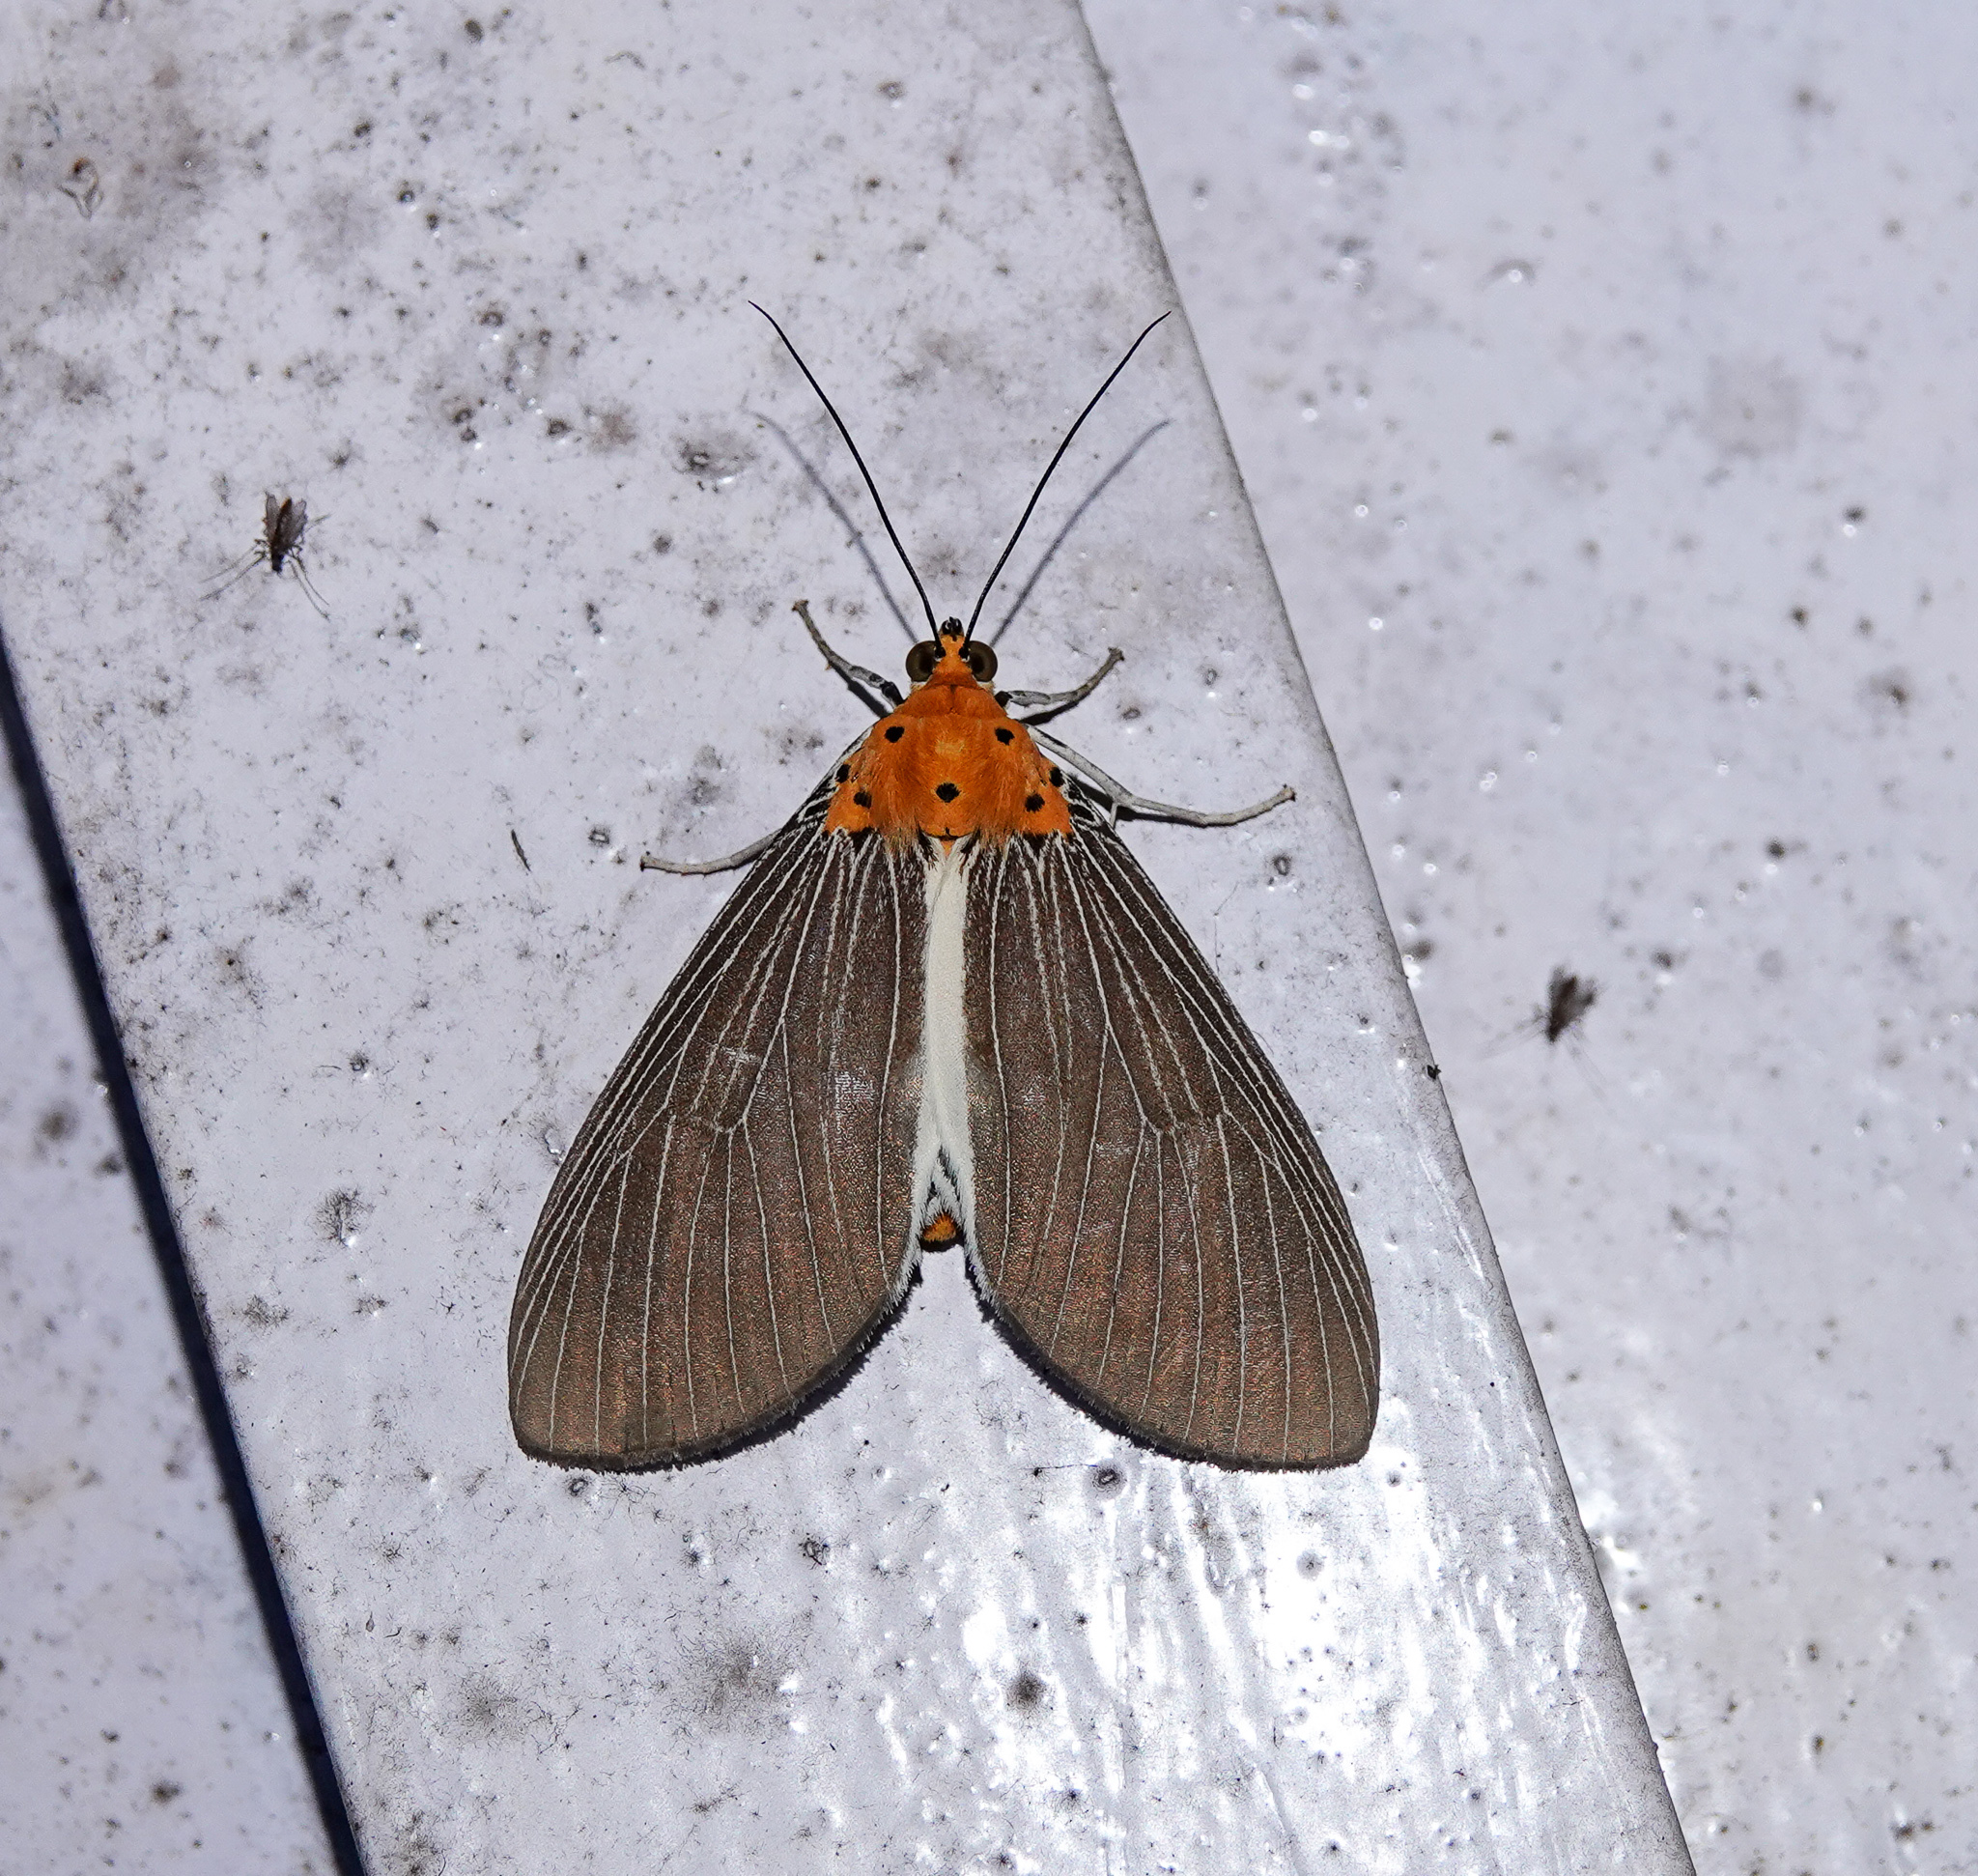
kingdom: Animalia
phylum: Arthropoda
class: Insecta
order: Lepidoptera
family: Erebidae
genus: Asota
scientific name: Asota paphos
